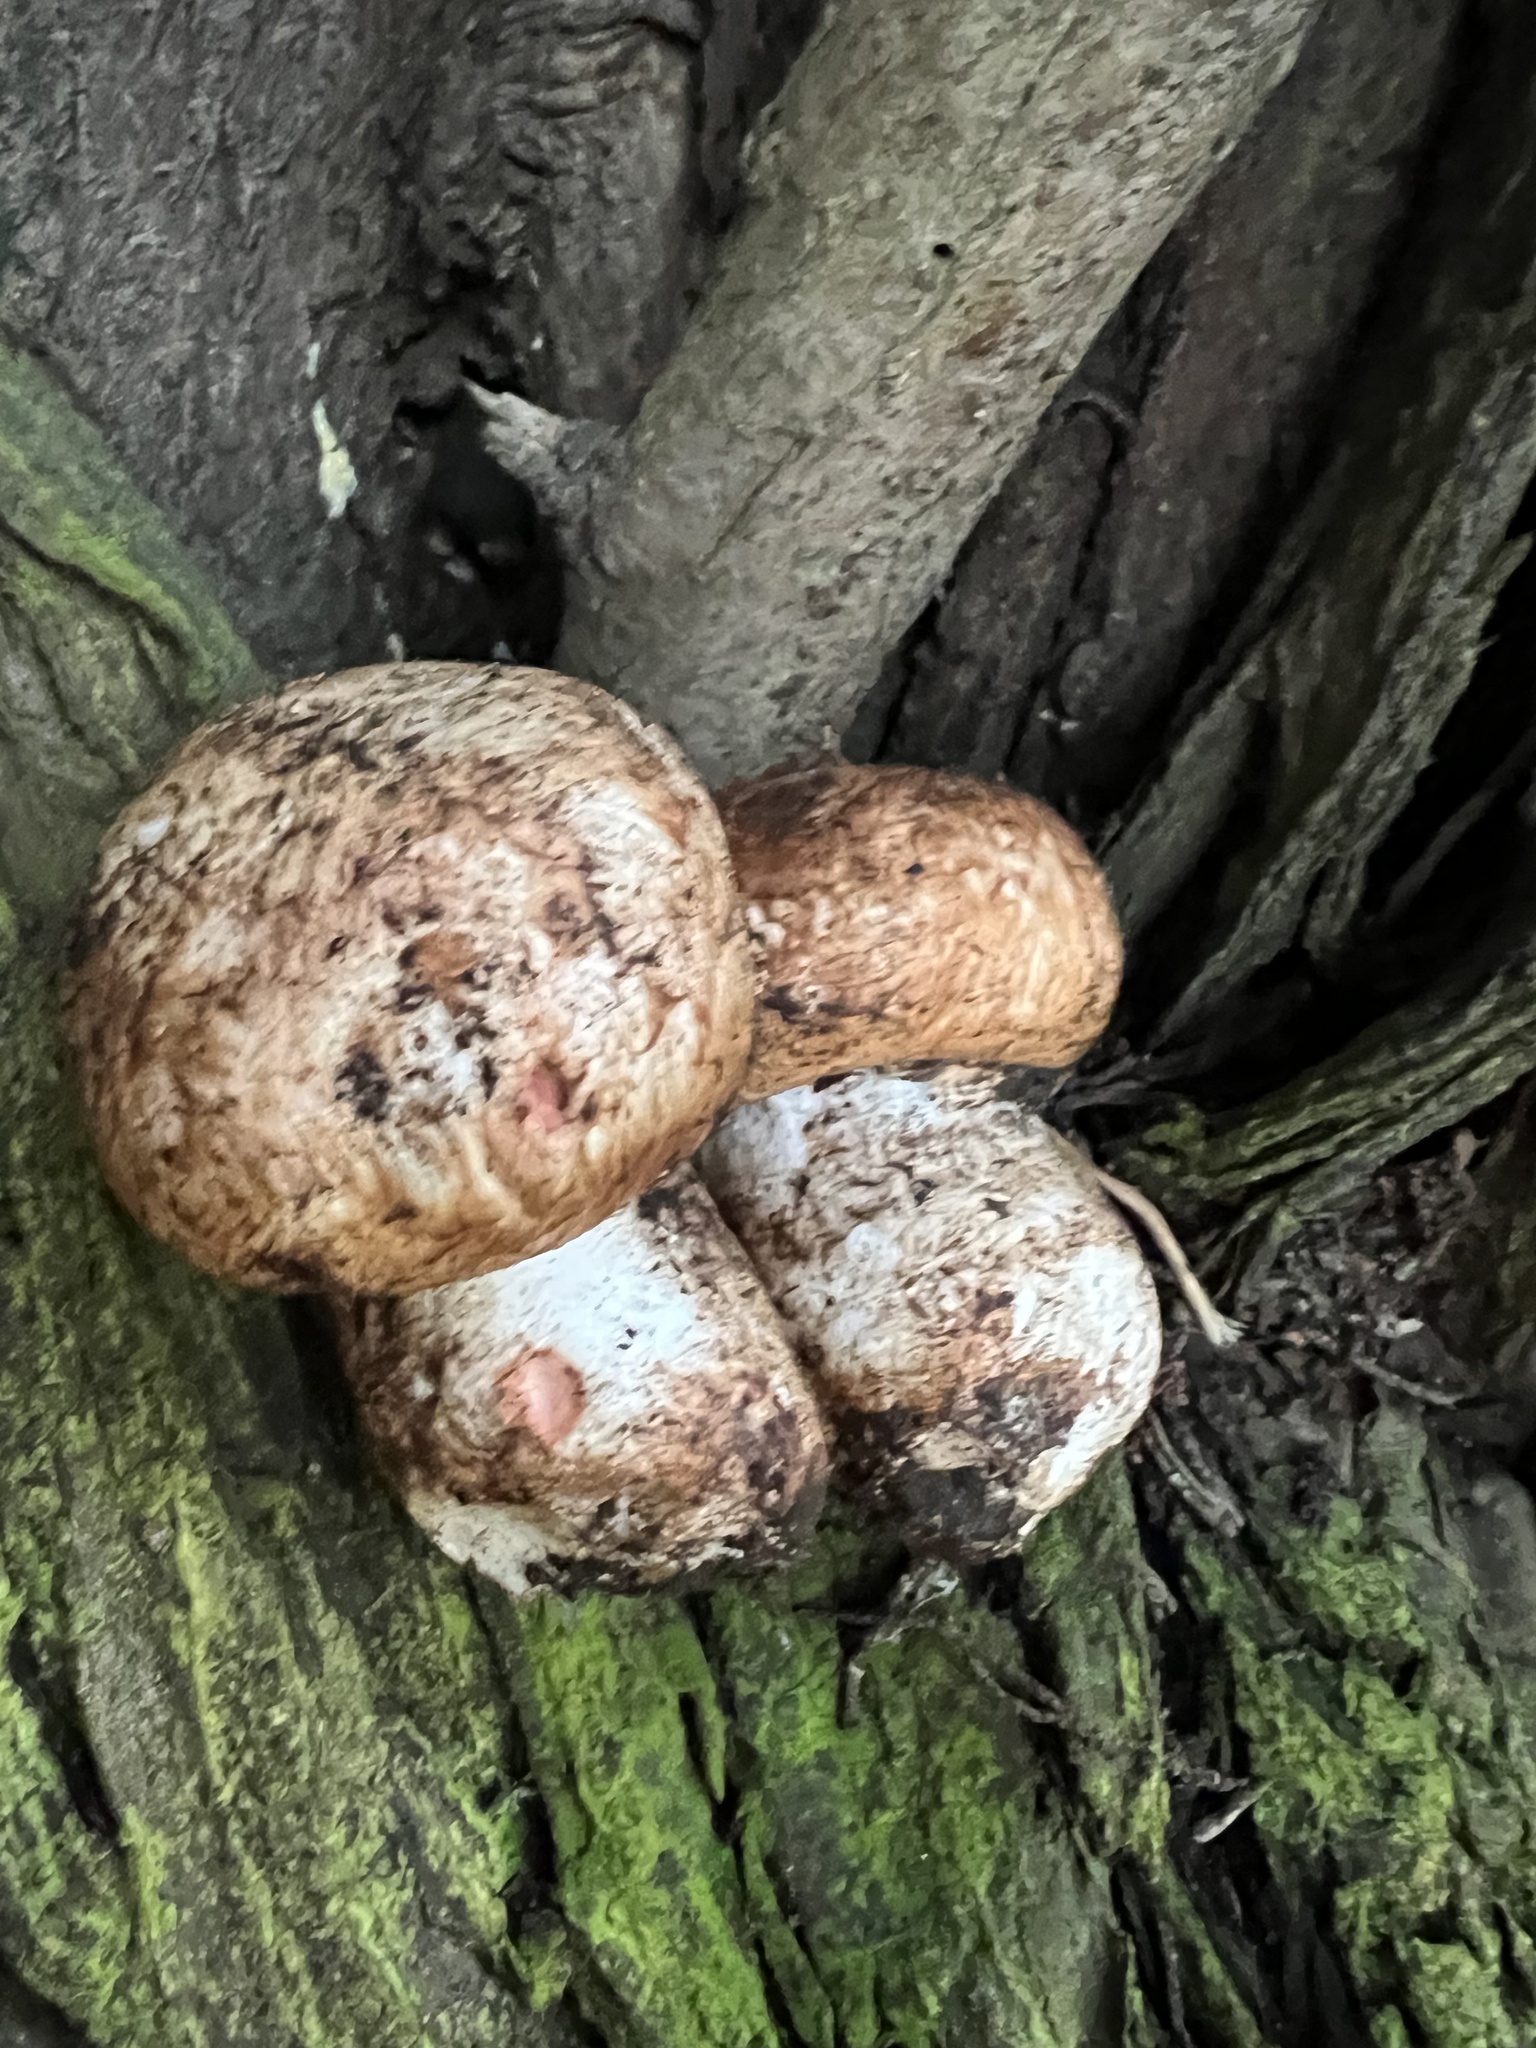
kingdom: Fungi
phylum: Basidiomycota
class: Agaricomycetes
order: Agaricales
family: Agaricaceae
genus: Agaricus
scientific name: Agaricus lilaceps
